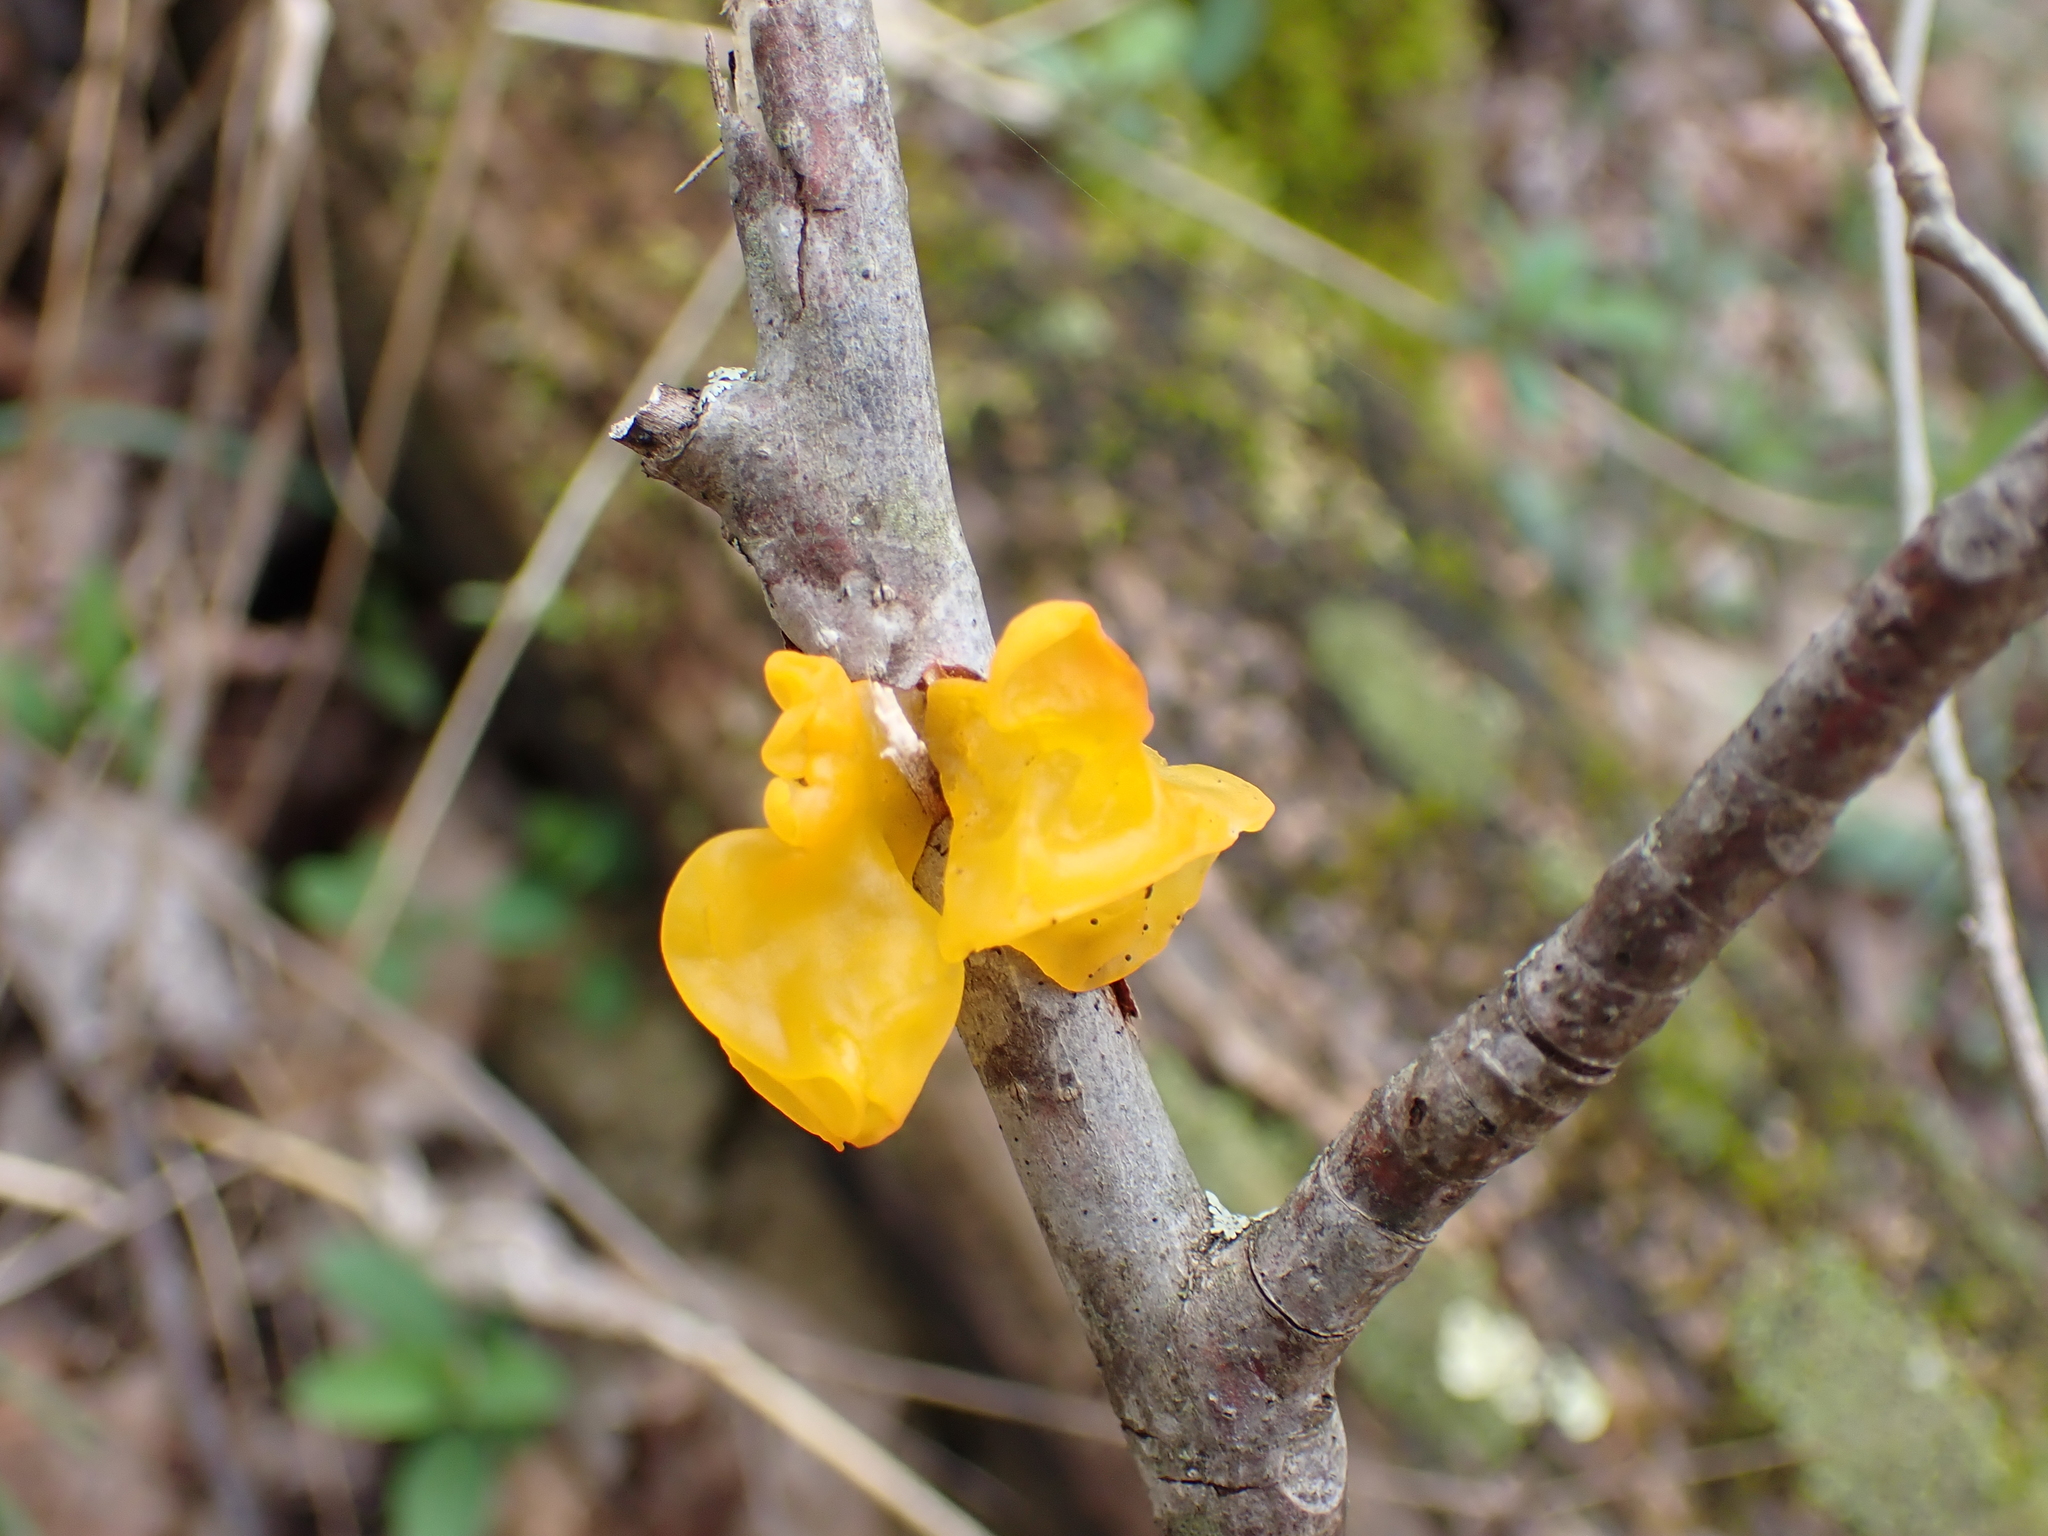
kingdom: Fungi
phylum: Basidiomycota
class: Tremellomycetes
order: Tremellales
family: Tremellaceae
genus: Tremella
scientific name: Tremella mesenterica
